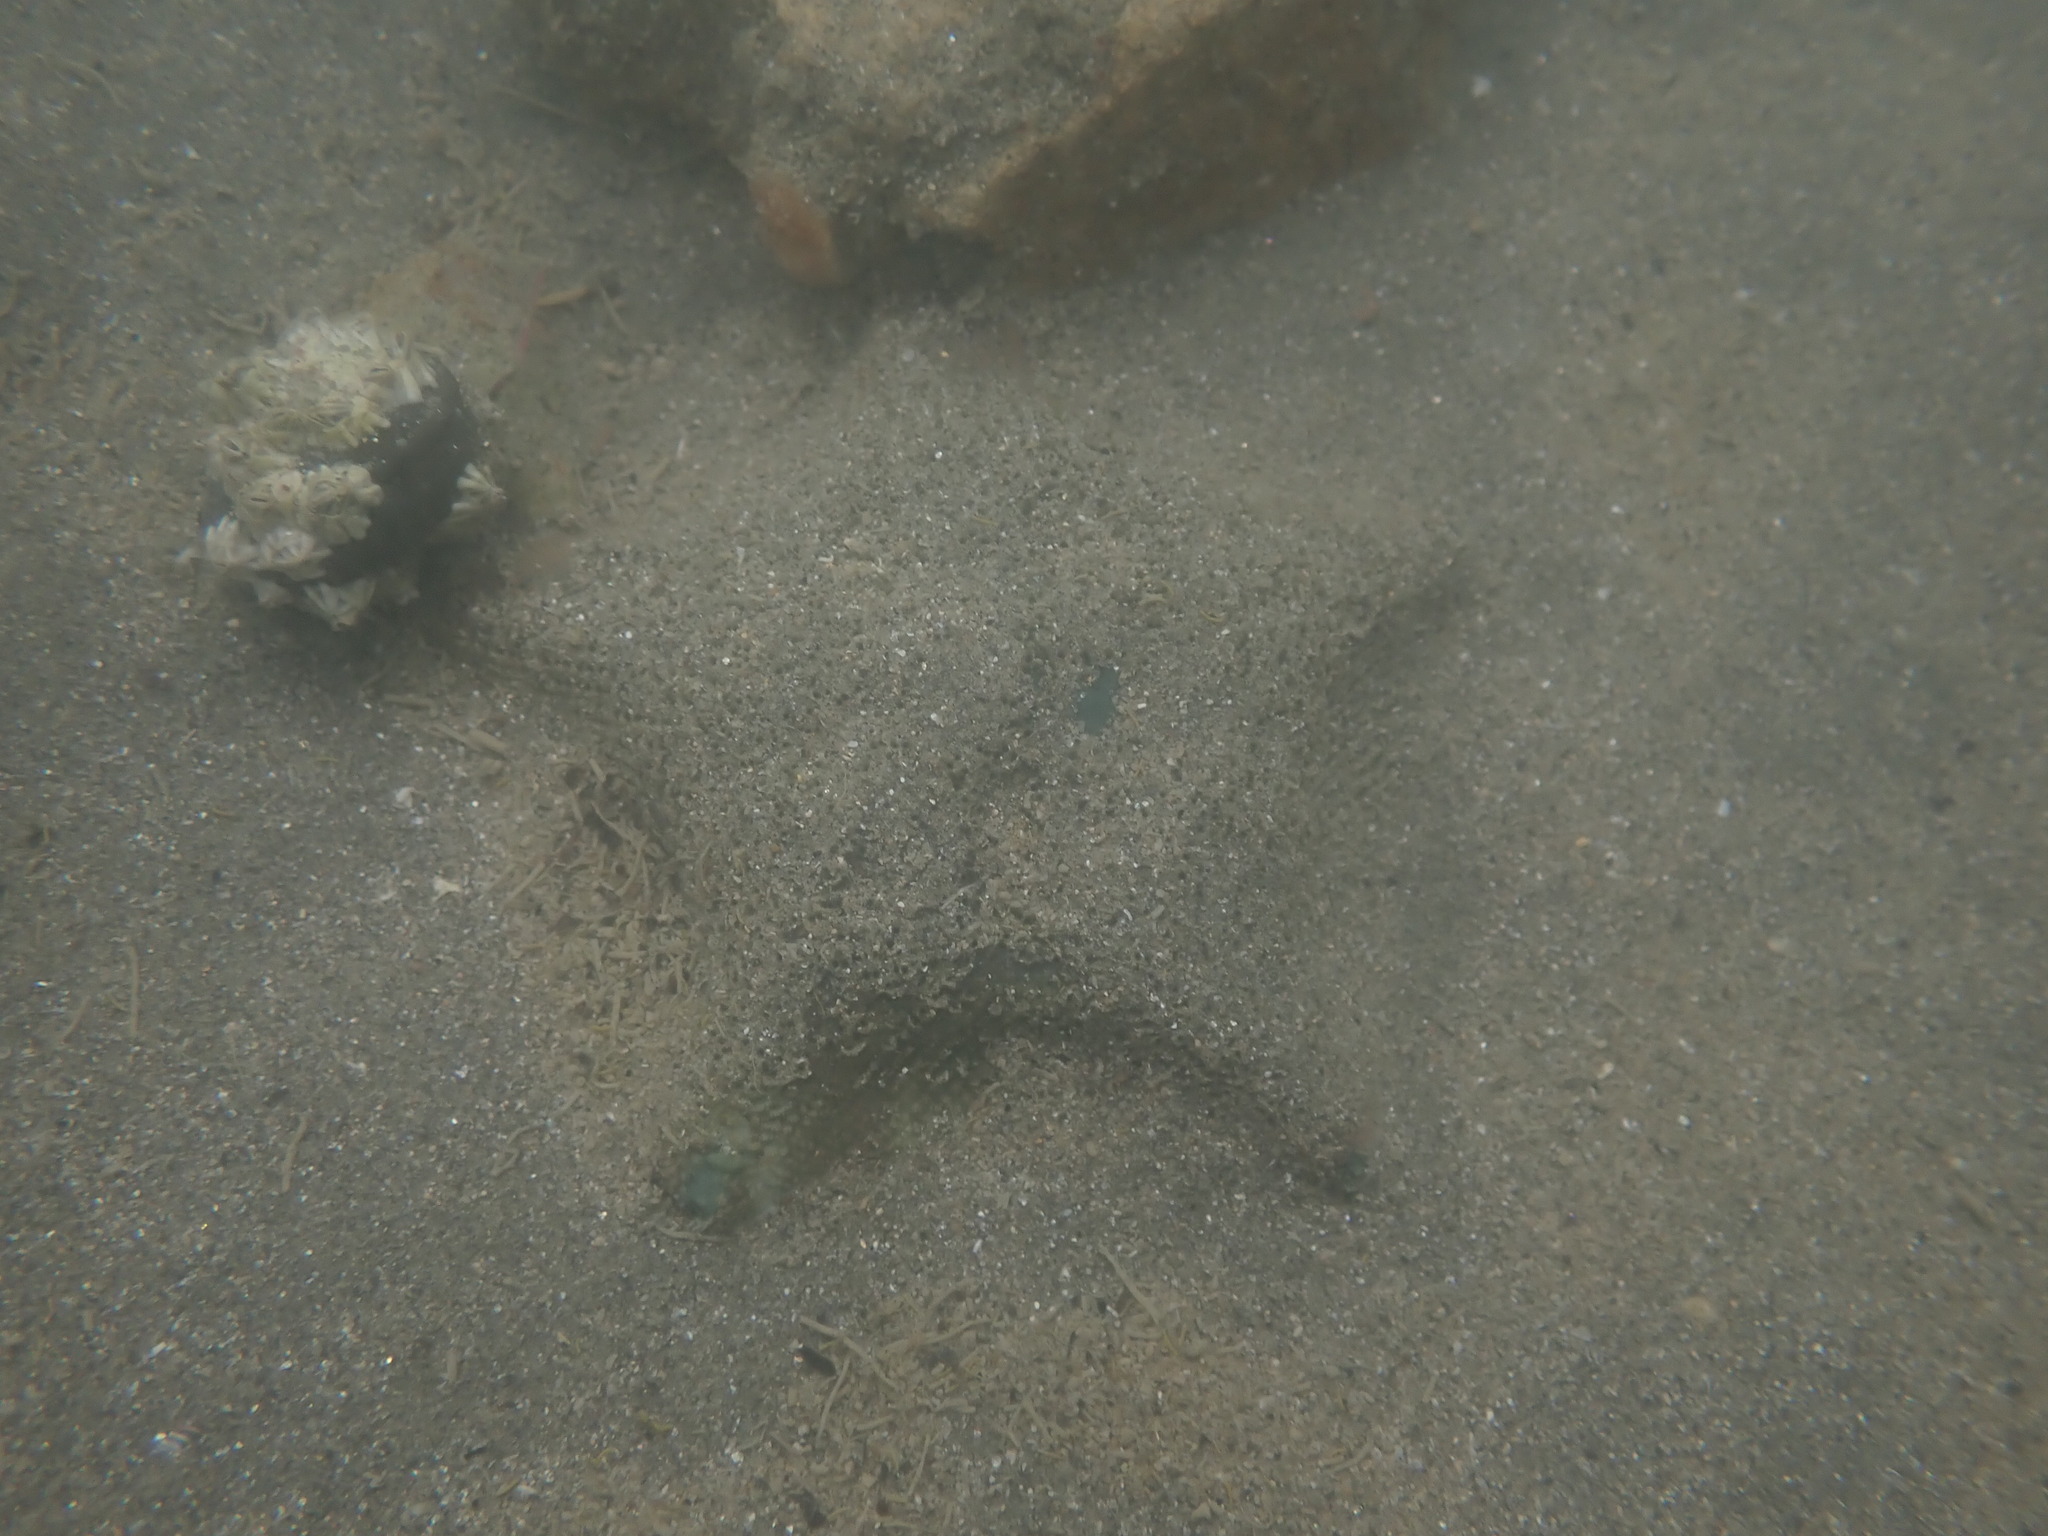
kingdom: Animalia
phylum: Echinodermata
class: Asteroidea
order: Valvatida
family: Asterinidae
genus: Patiriella
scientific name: Patiriella regularis
